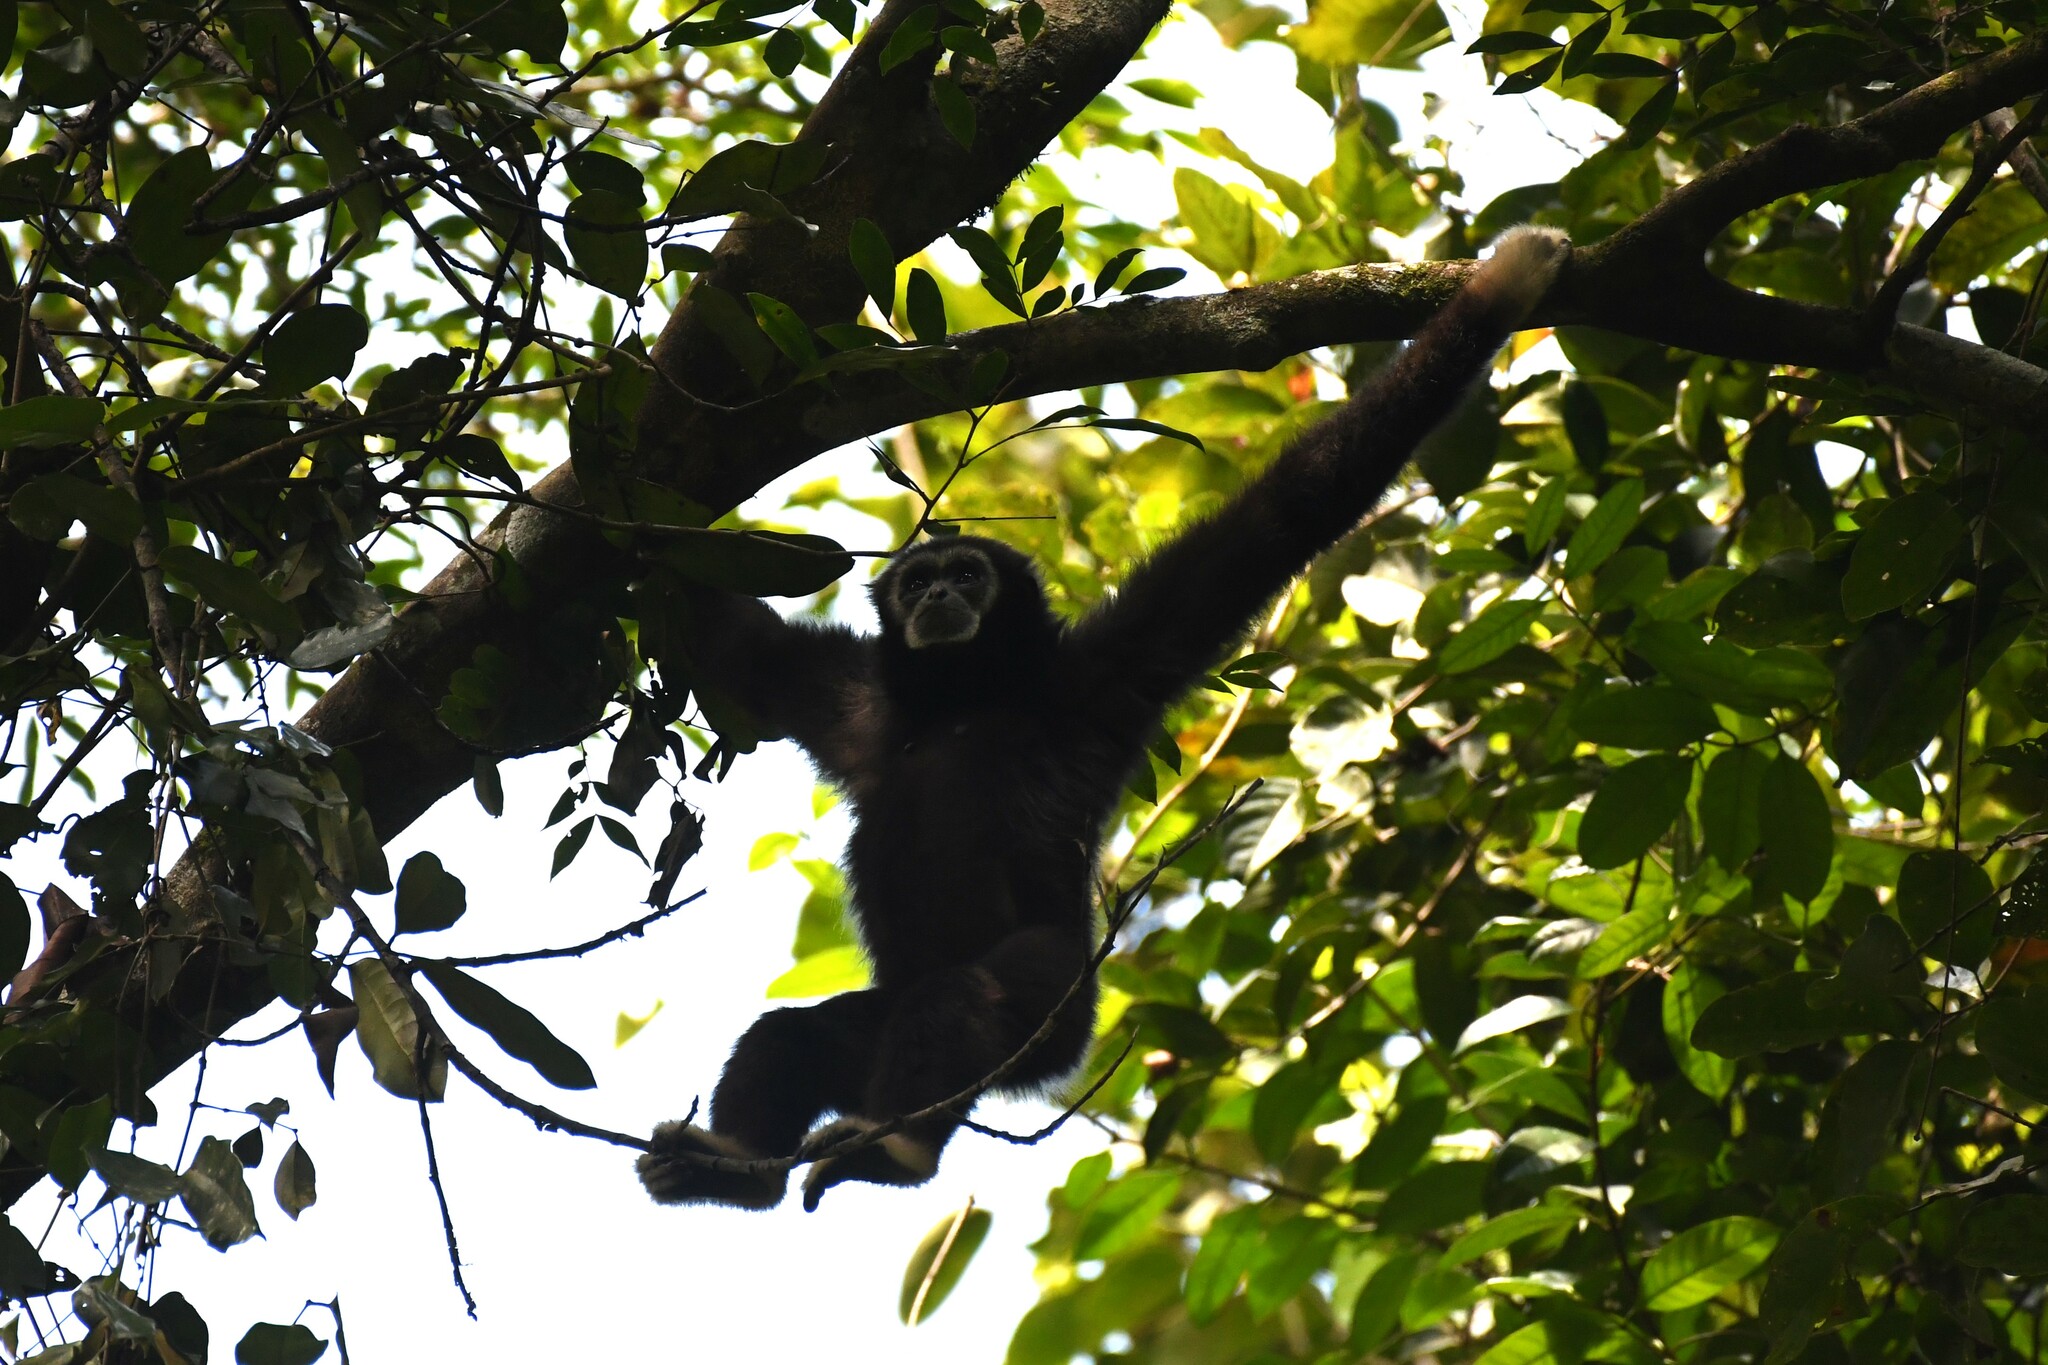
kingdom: Animalia
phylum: Chordata
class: Mammalia
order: Primates
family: Hylobatidae
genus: Hylobates
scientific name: Hylobates lar
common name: Lar gibbon
